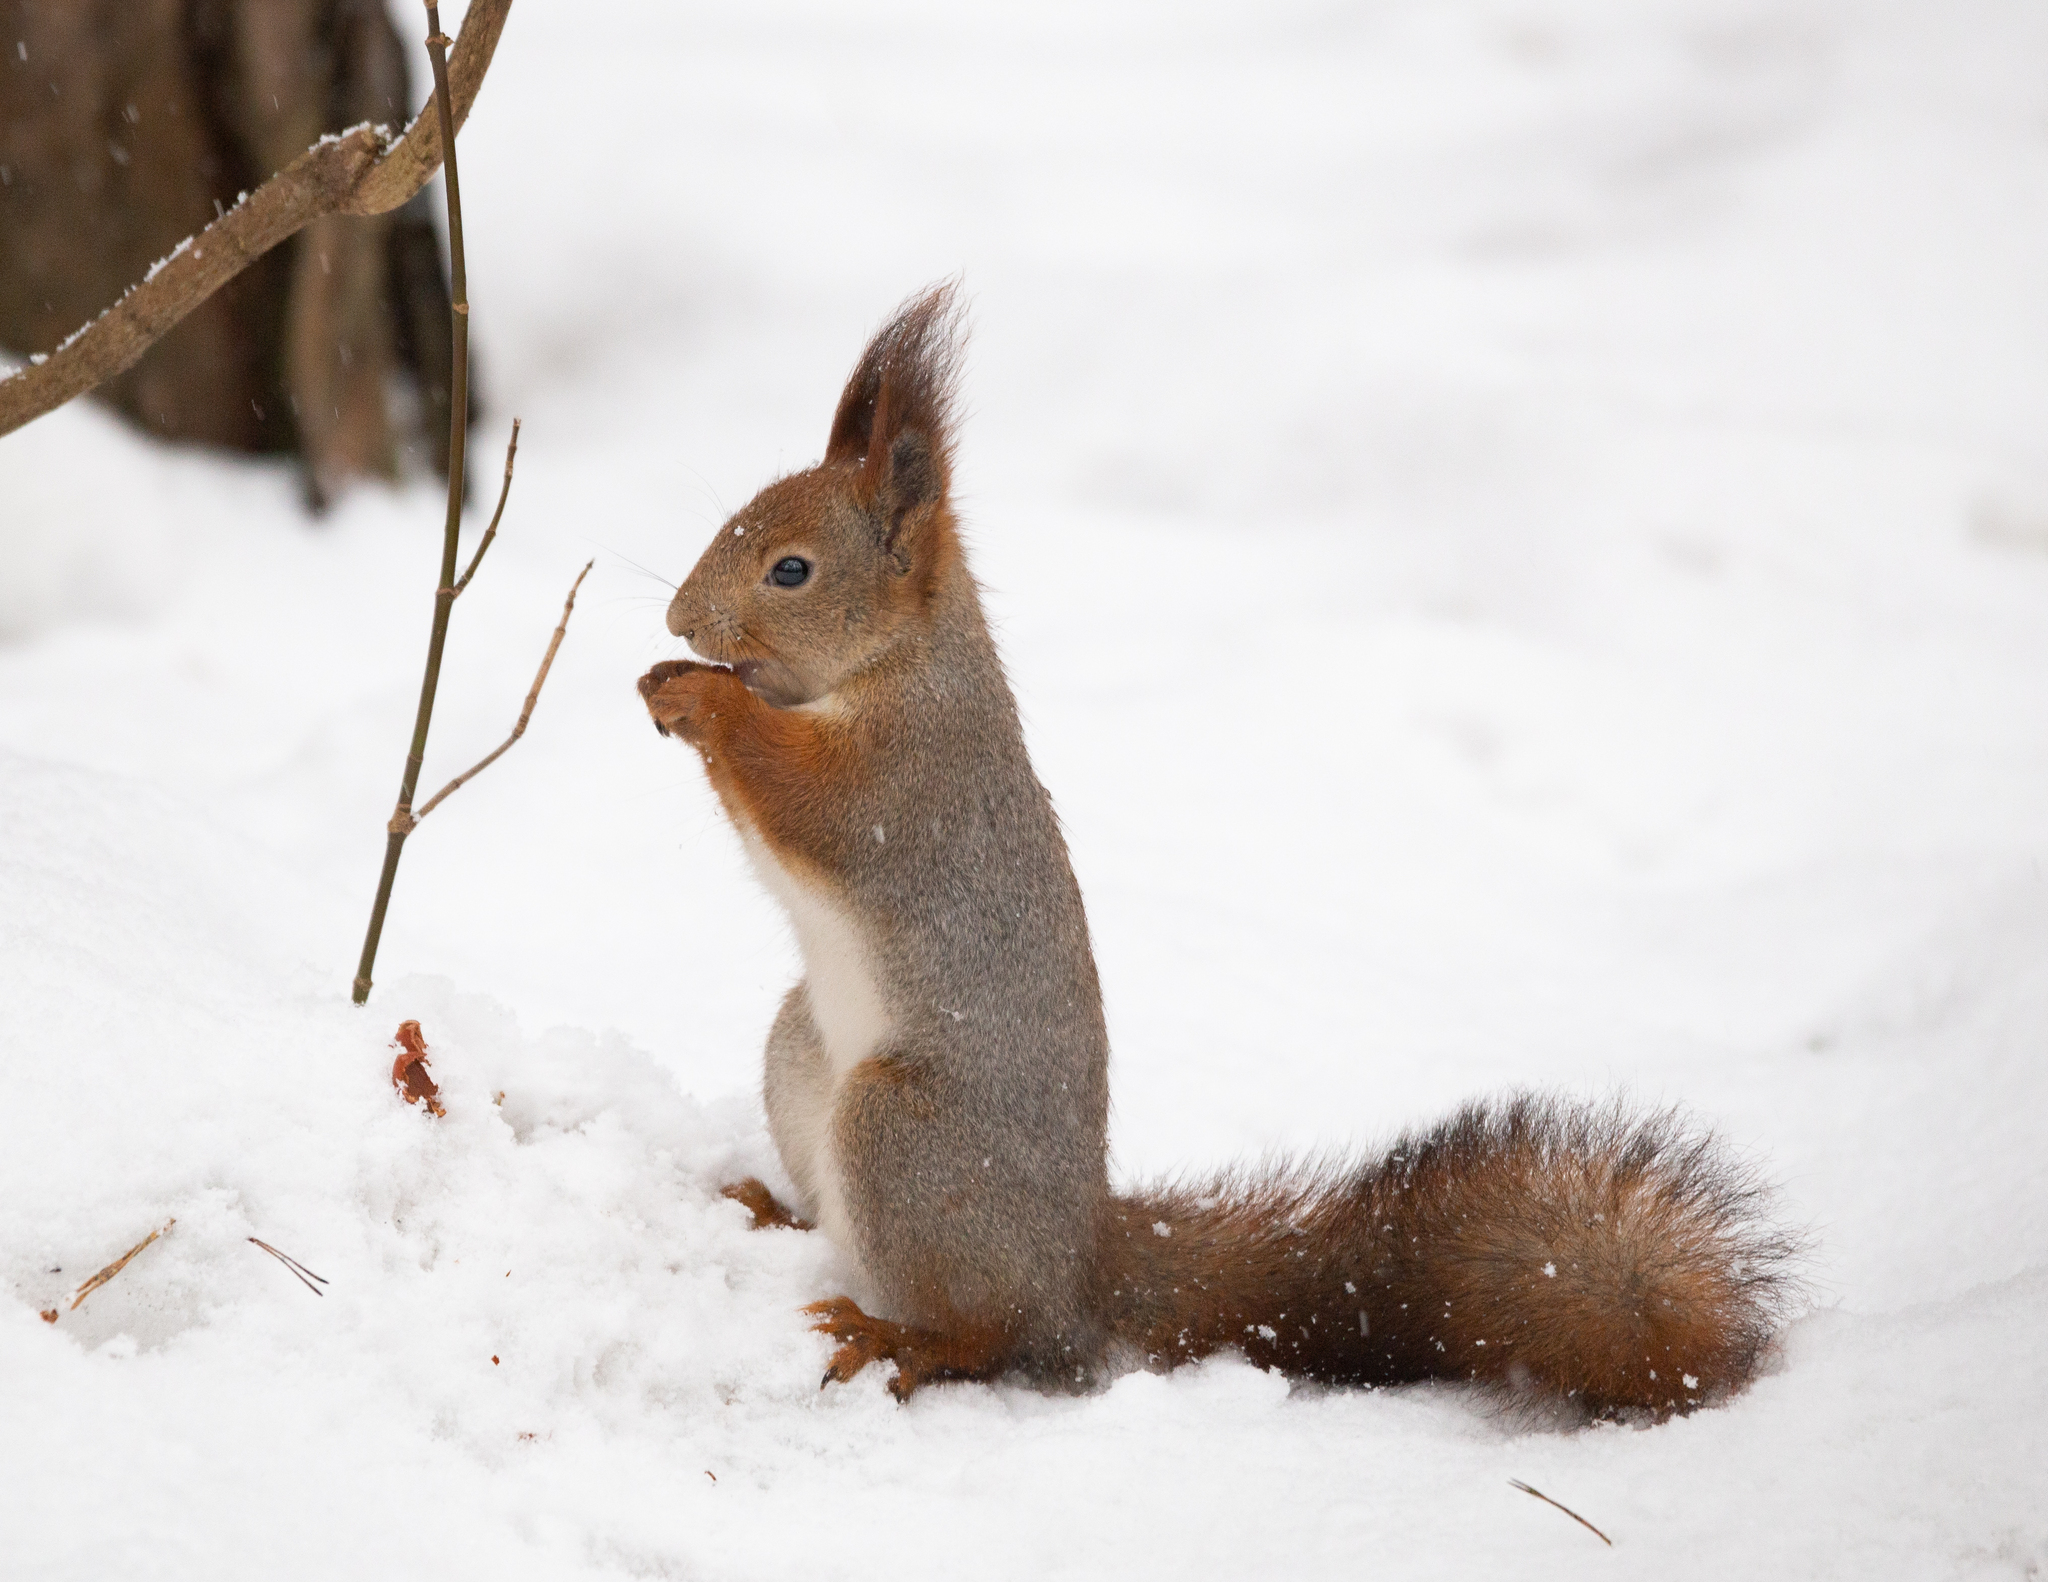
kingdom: Animalia
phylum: Chordata
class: Mammalia
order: Rodentia
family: Sciuridae
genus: Sciurus
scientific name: Sciurus vulgaris
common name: Eurasian red squirrel
